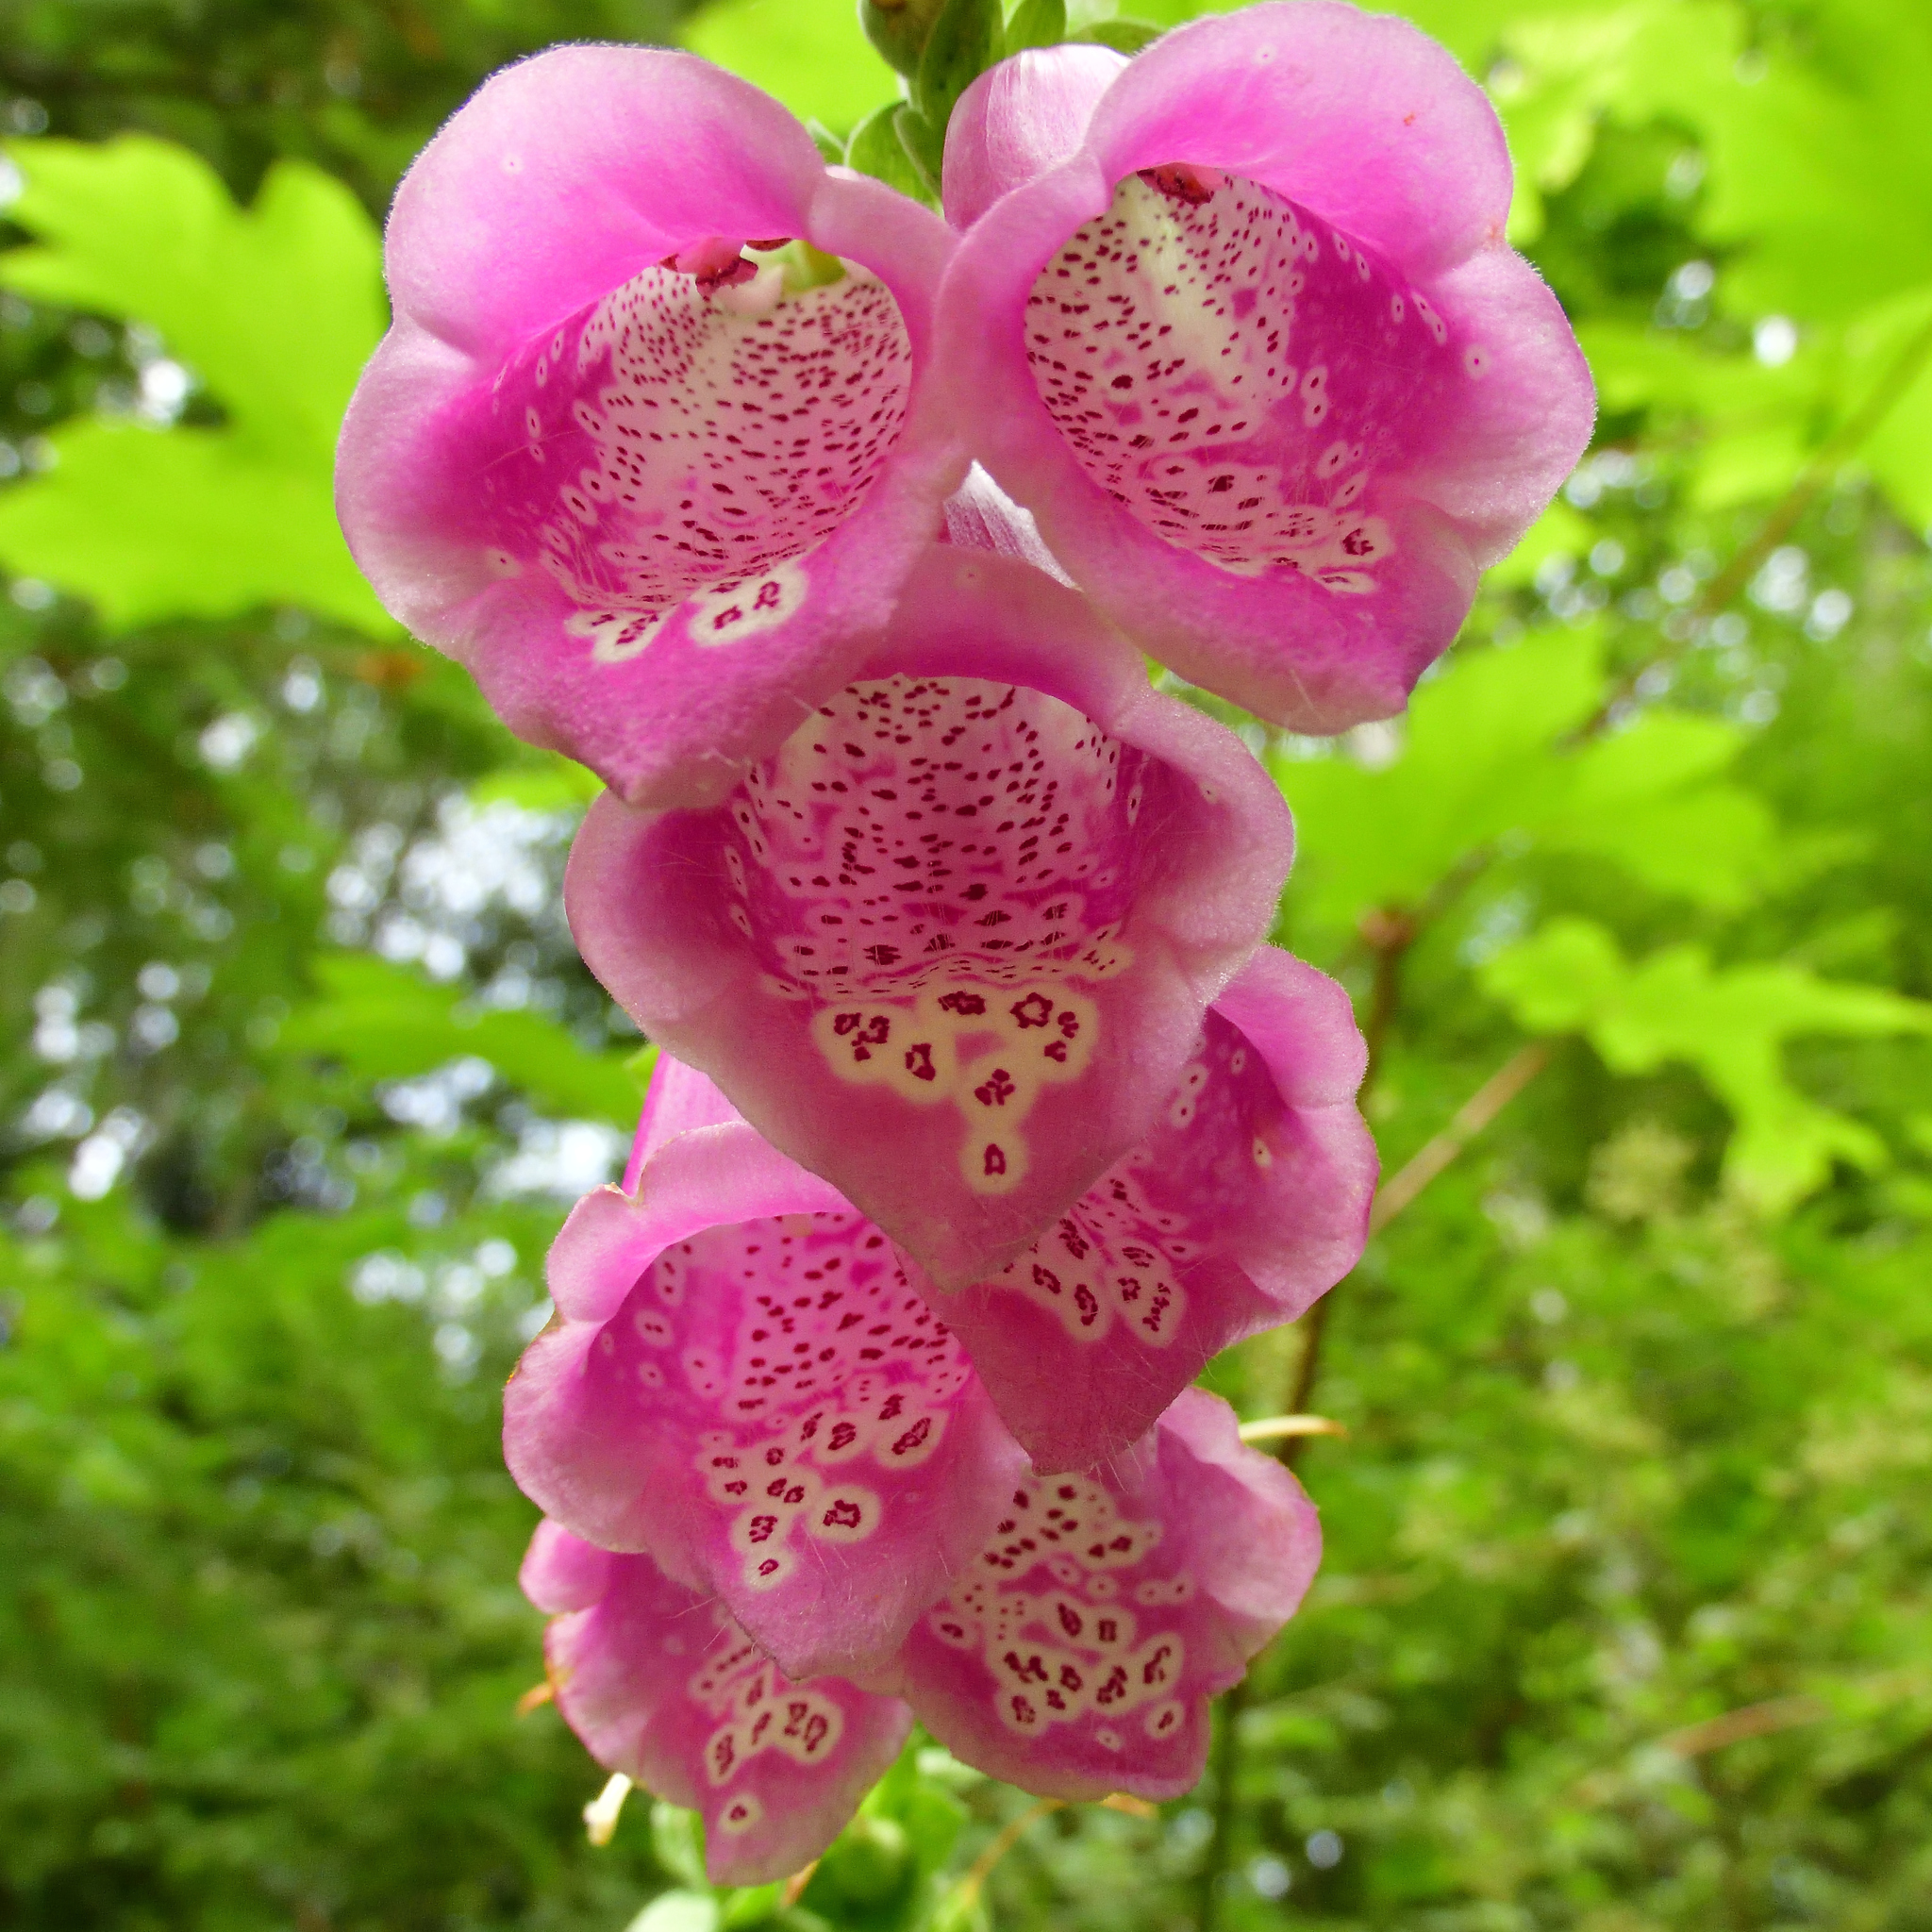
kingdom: Plantae
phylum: Tracheophyta
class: Magnoliopsida
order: Lamiales
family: Plantaginaceae
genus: Digitalis
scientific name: Digitalis purpurea
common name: Foxglove
